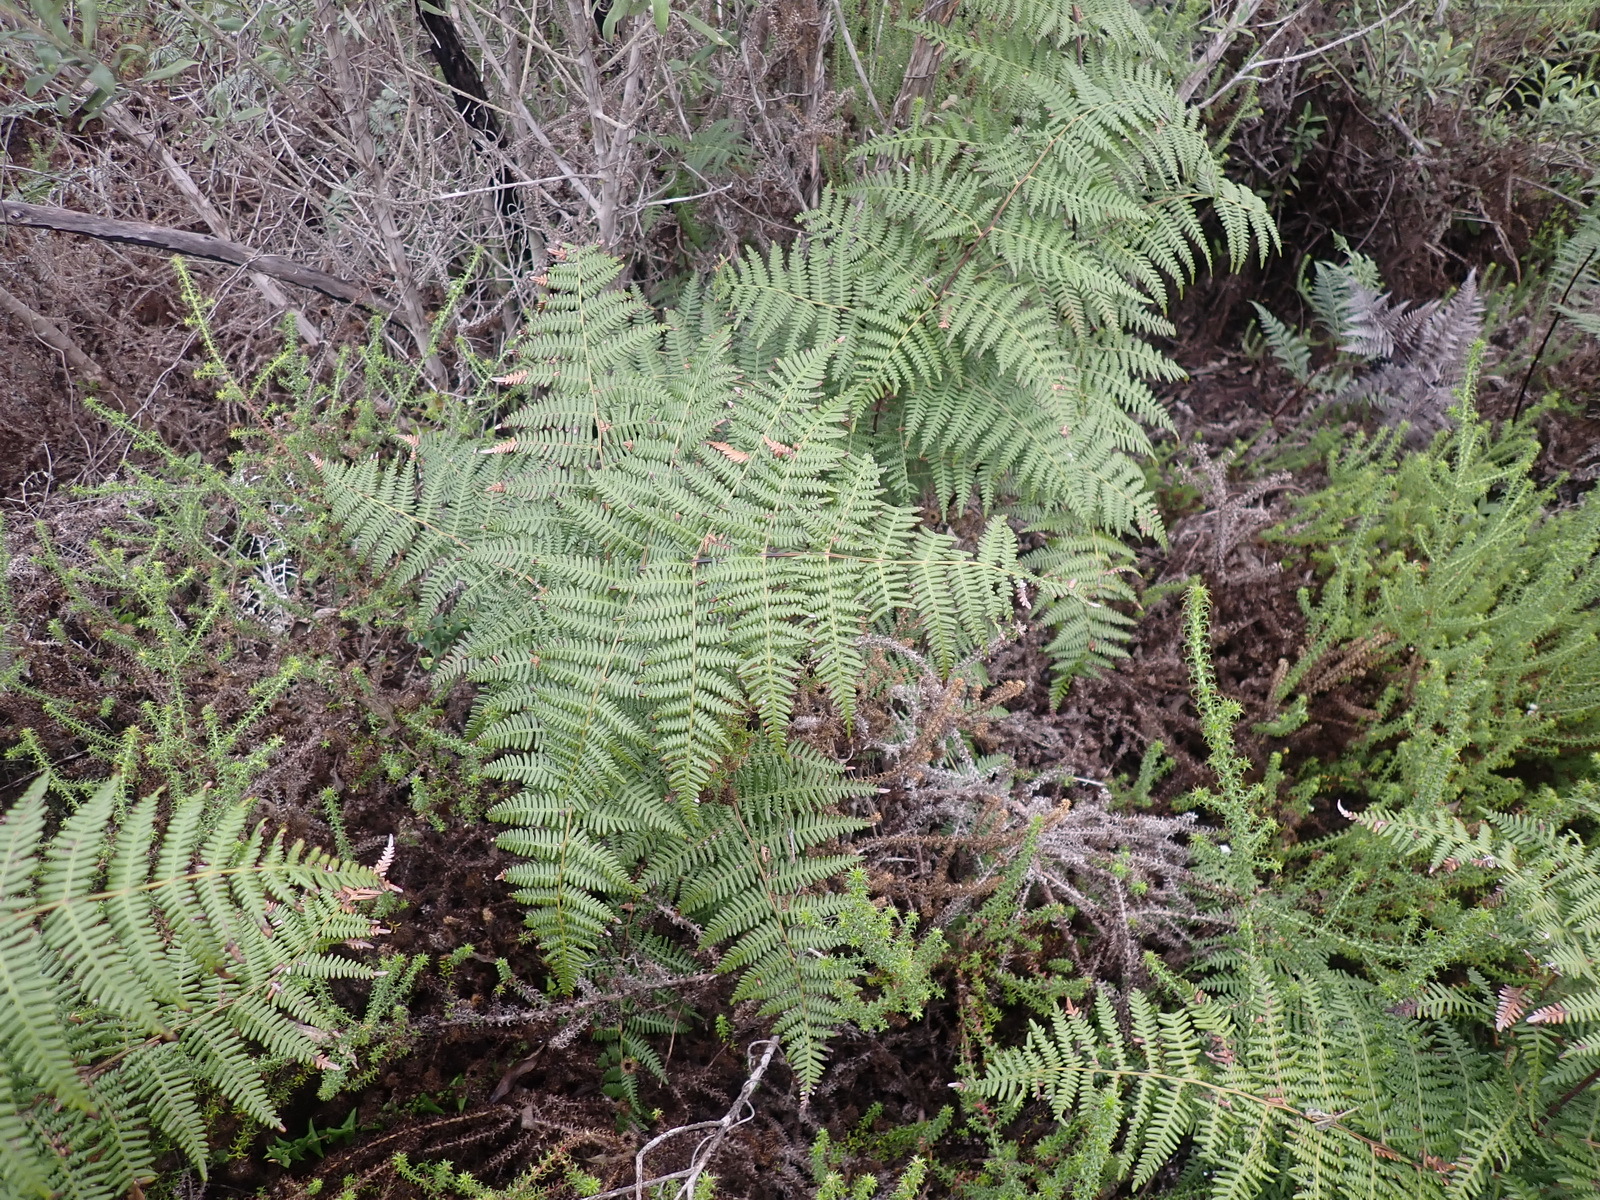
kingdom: Plantae
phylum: Tracheophyta
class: Polypodiopsida
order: Polypodiales
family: Dennstaedtiaceae
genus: Pteridium
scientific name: Pteridium aquilinum
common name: Bracken
